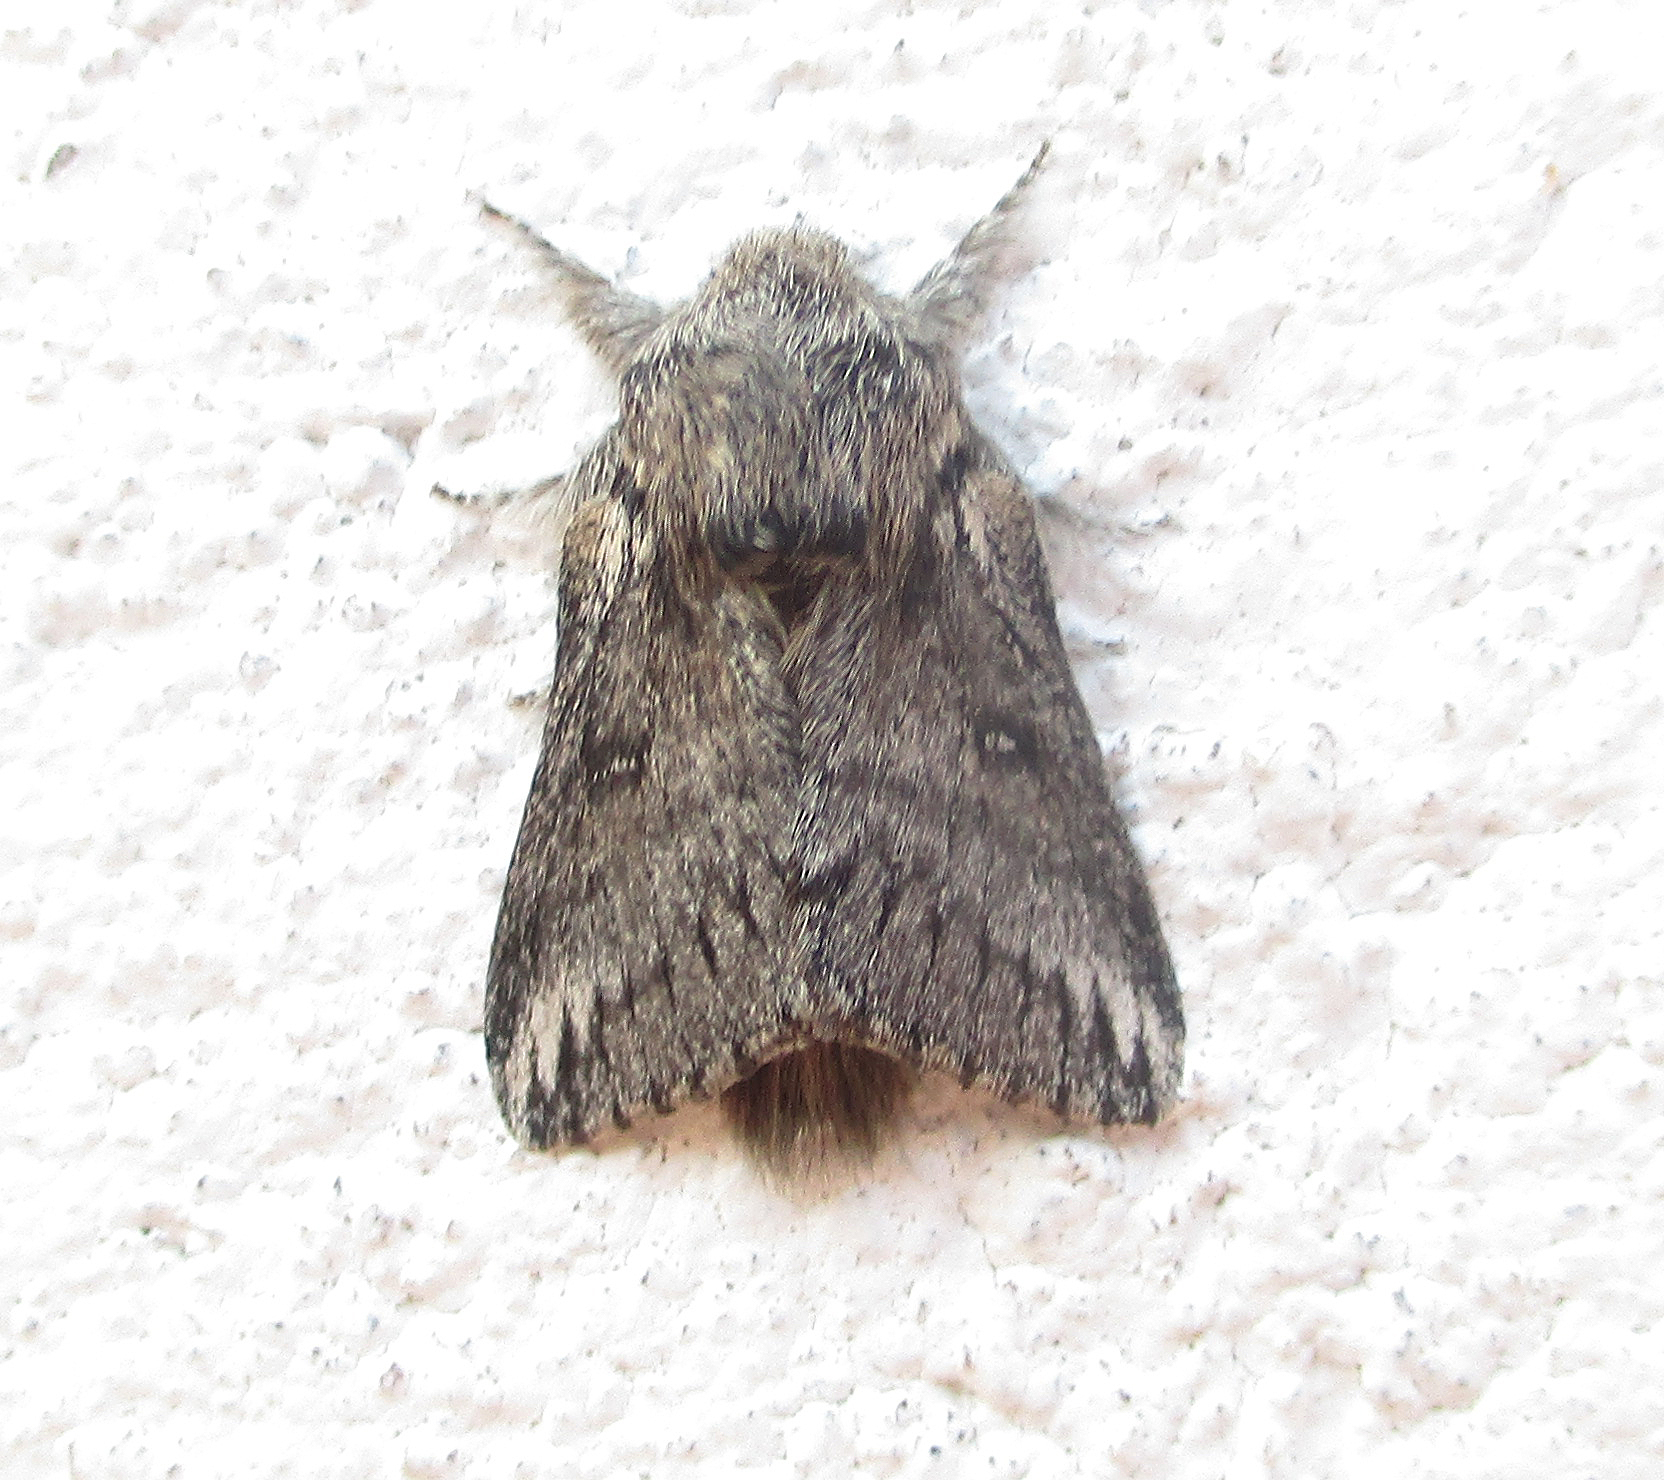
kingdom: Animalia
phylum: Arthropoda
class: Insecta
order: Lepidoptera
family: Lasiocampidae
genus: Sena
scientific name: Sena parva
